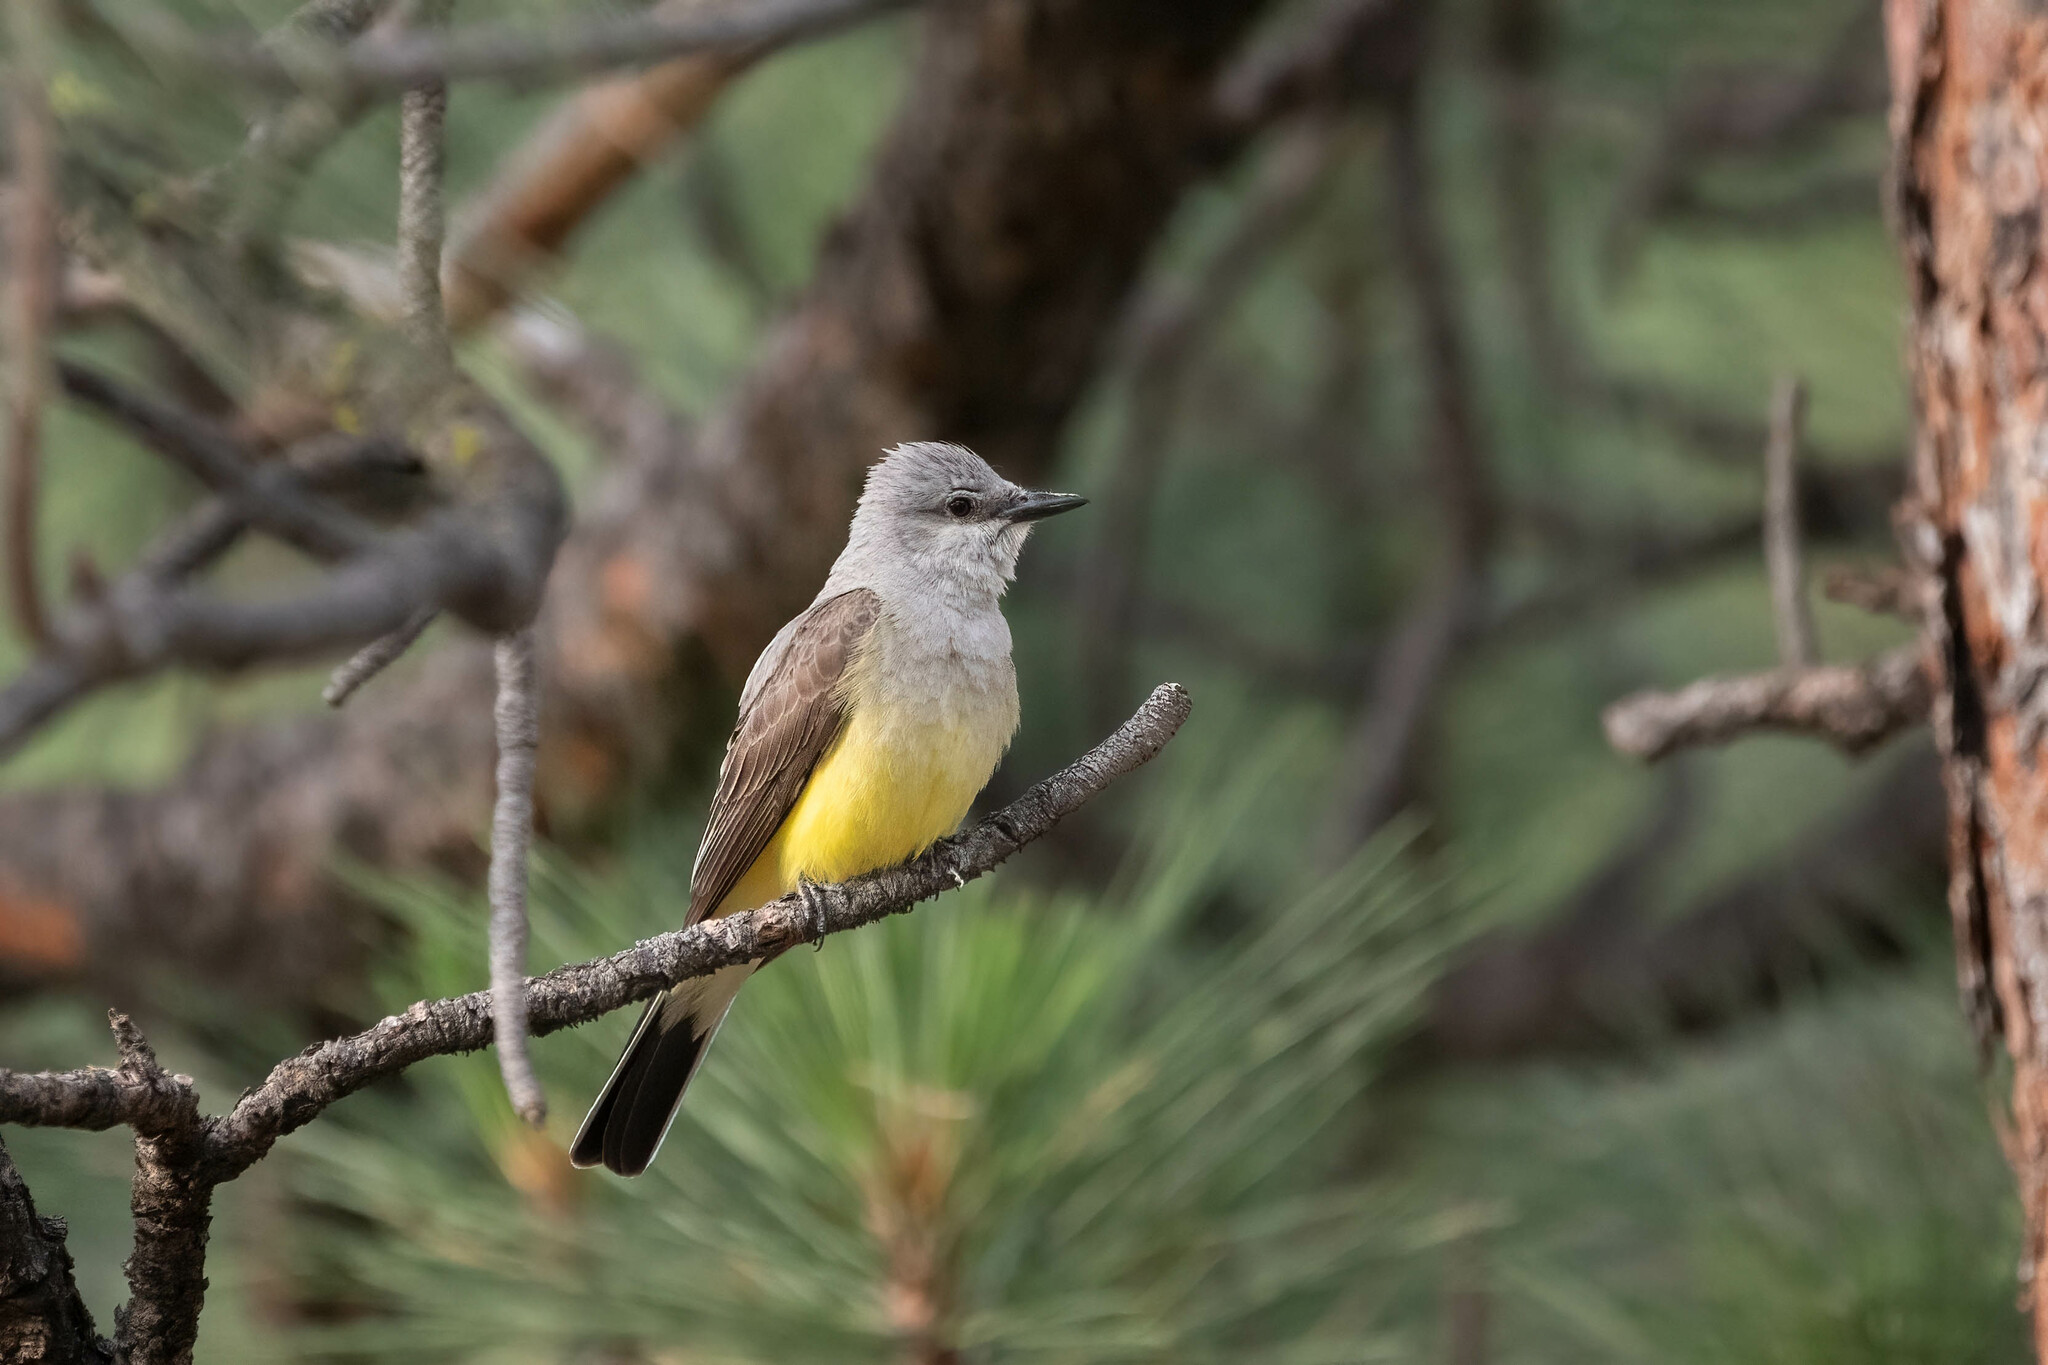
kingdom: Animalia
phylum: Chordata
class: Aves
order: Passeriformes
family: Tyrannidae
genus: Tyrannus
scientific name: Tyrannus verticalis
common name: Western kingbird
